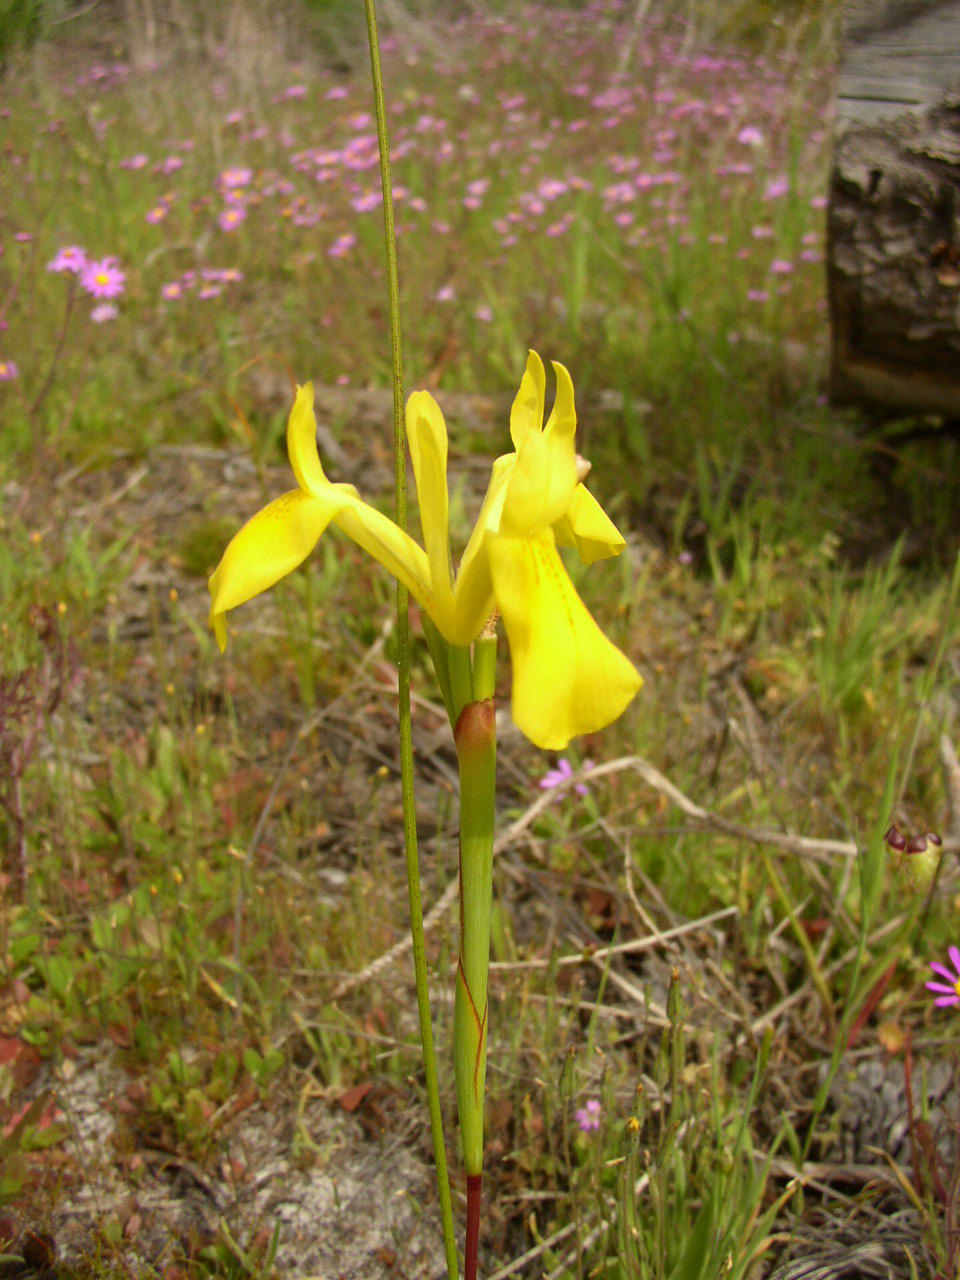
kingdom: Plantae
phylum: Tracheophyta
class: Liliopsida
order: Asparagales
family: Iridaceae
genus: Moraea
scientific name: Moraea neglecta
